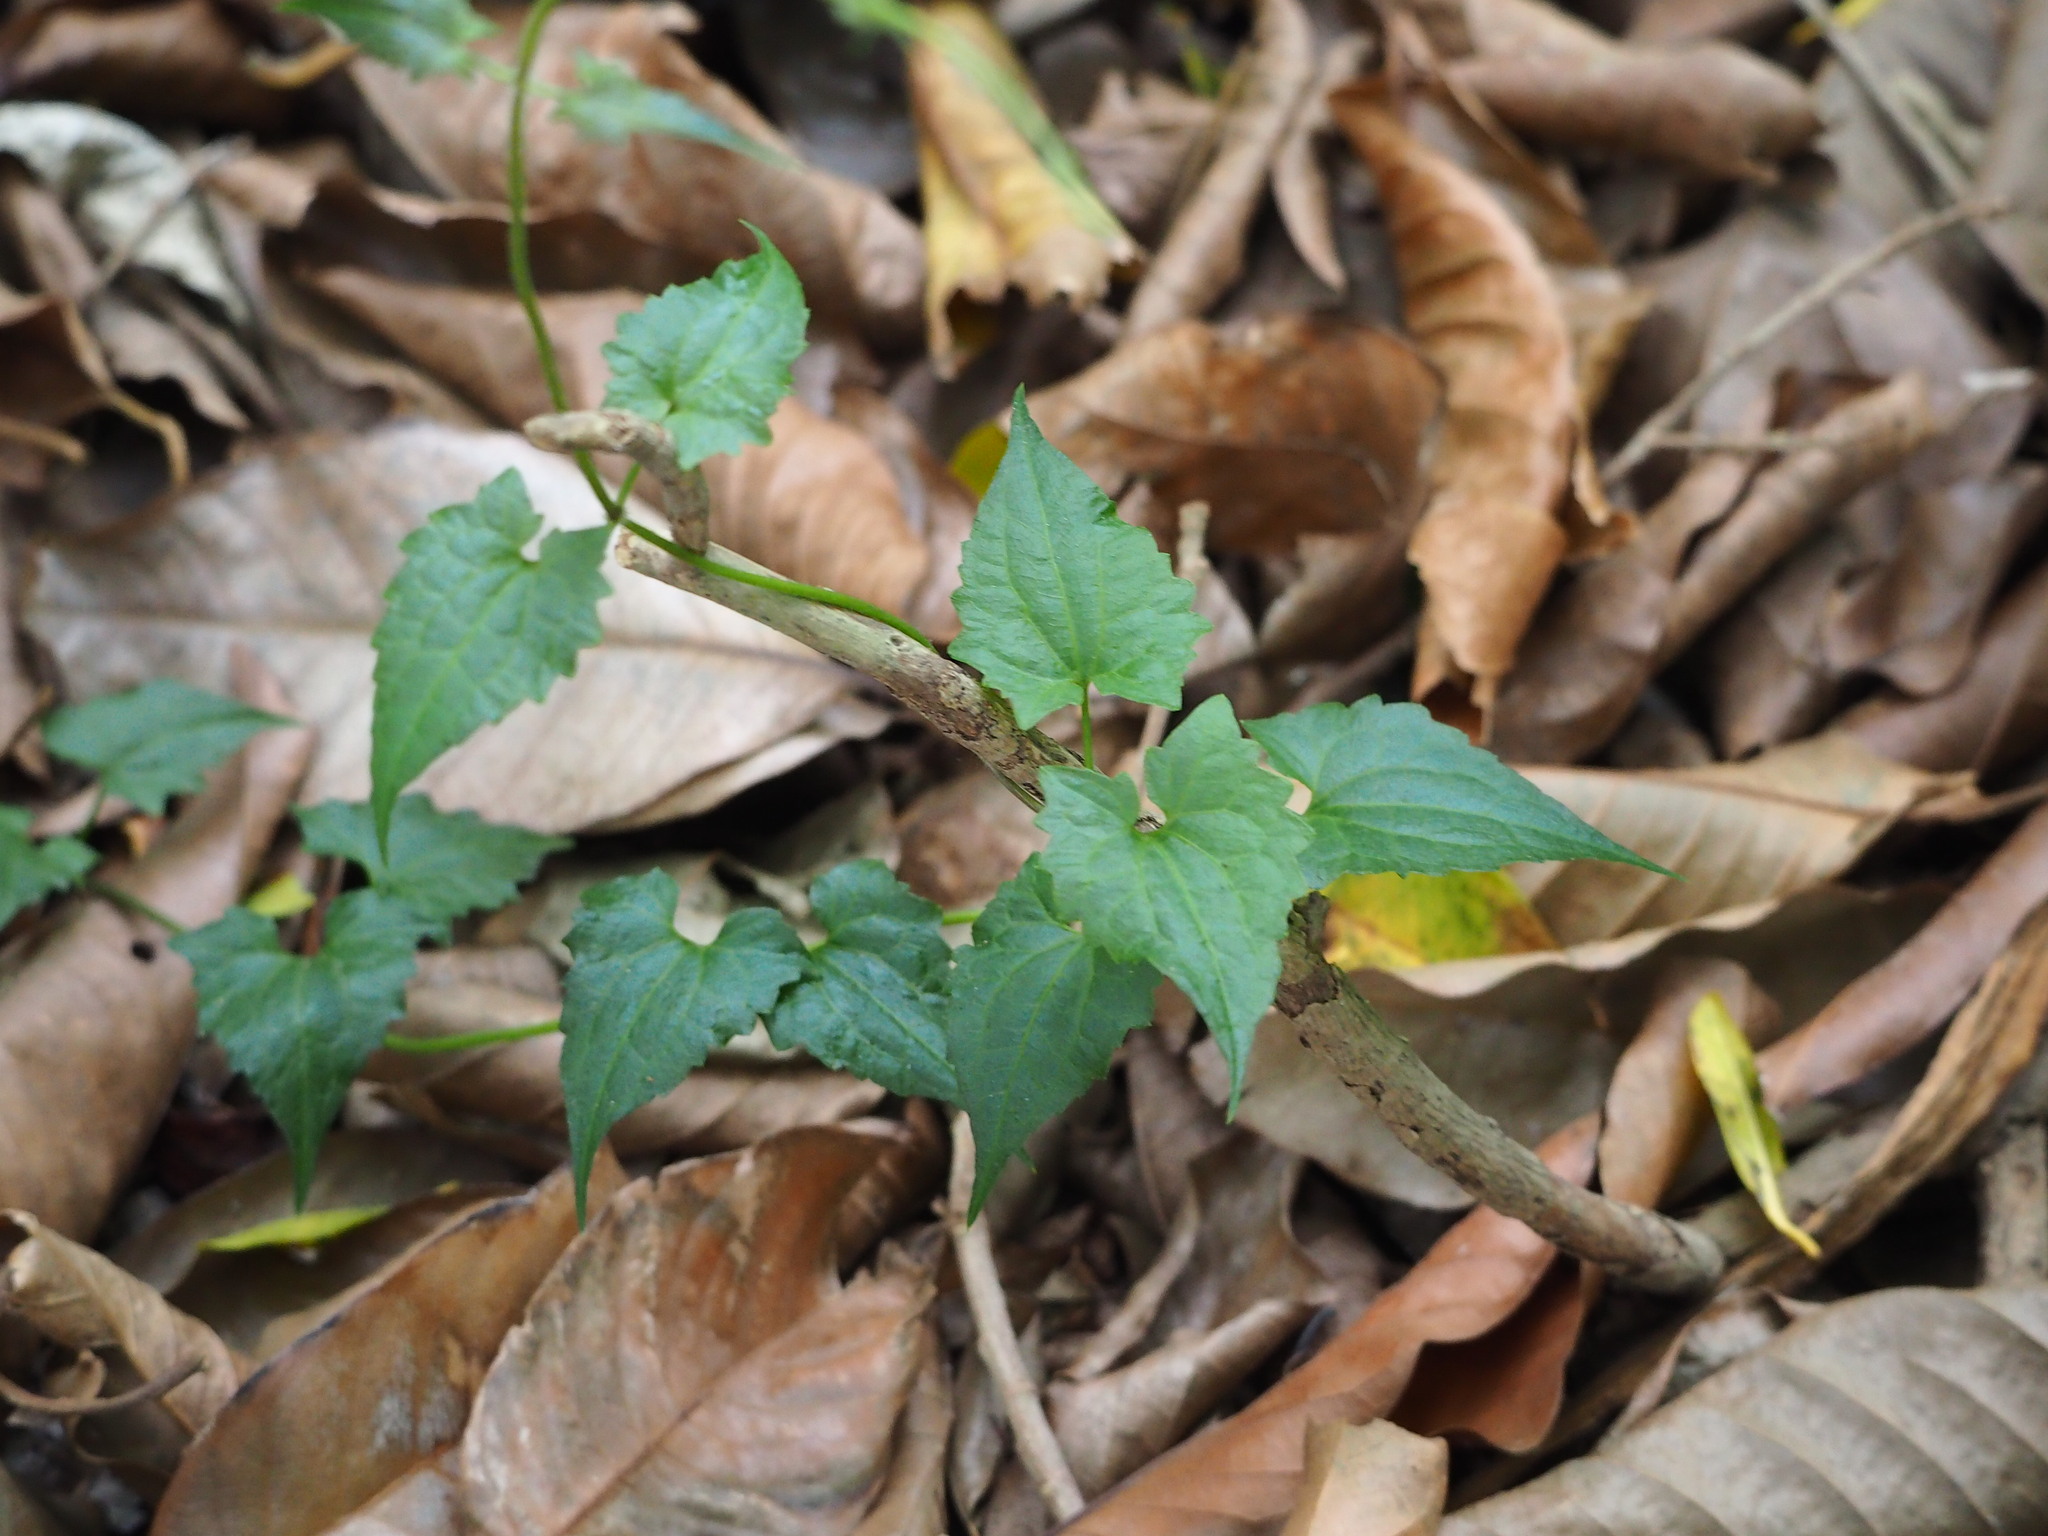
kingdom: Plantae
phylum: Tracheophyta
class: Magnoliopsida
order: Asterales
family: Asteraceae
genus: Mikania
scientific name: Mikania micrantha
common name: Mile-a-minute
